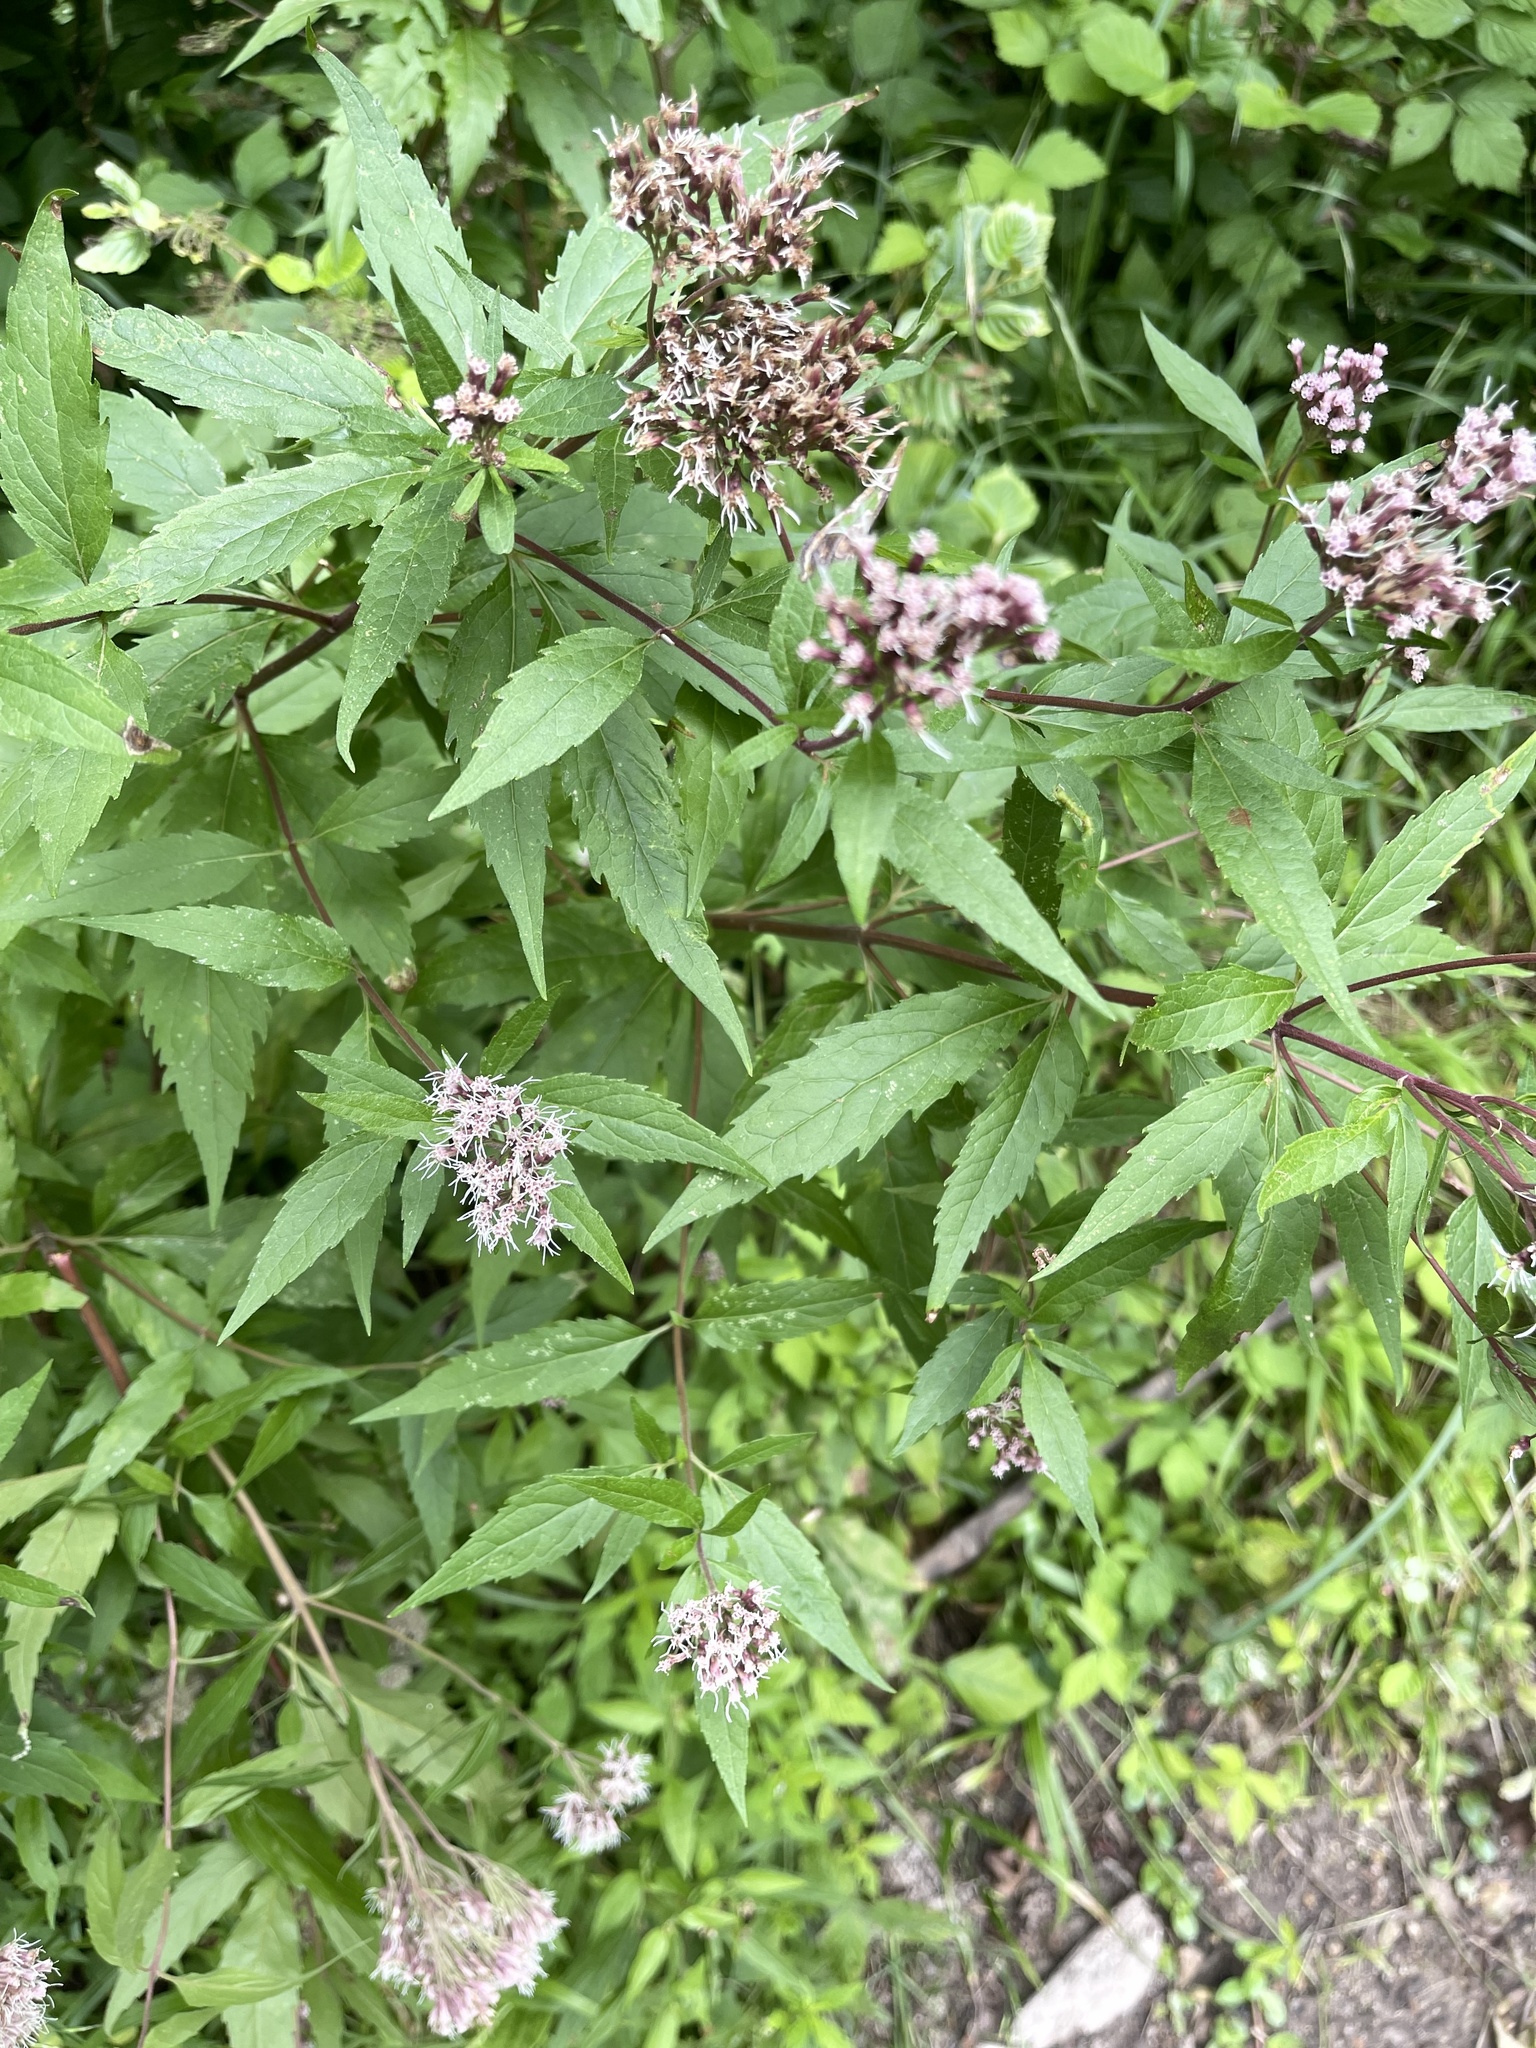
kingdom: Plantae
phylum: Tracheophyta
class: Magnoliopsida
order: Asterales
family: Asteraceae
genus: Eupatorium
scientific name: Eupatorium cannabinum
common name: Hemp-agrimony
